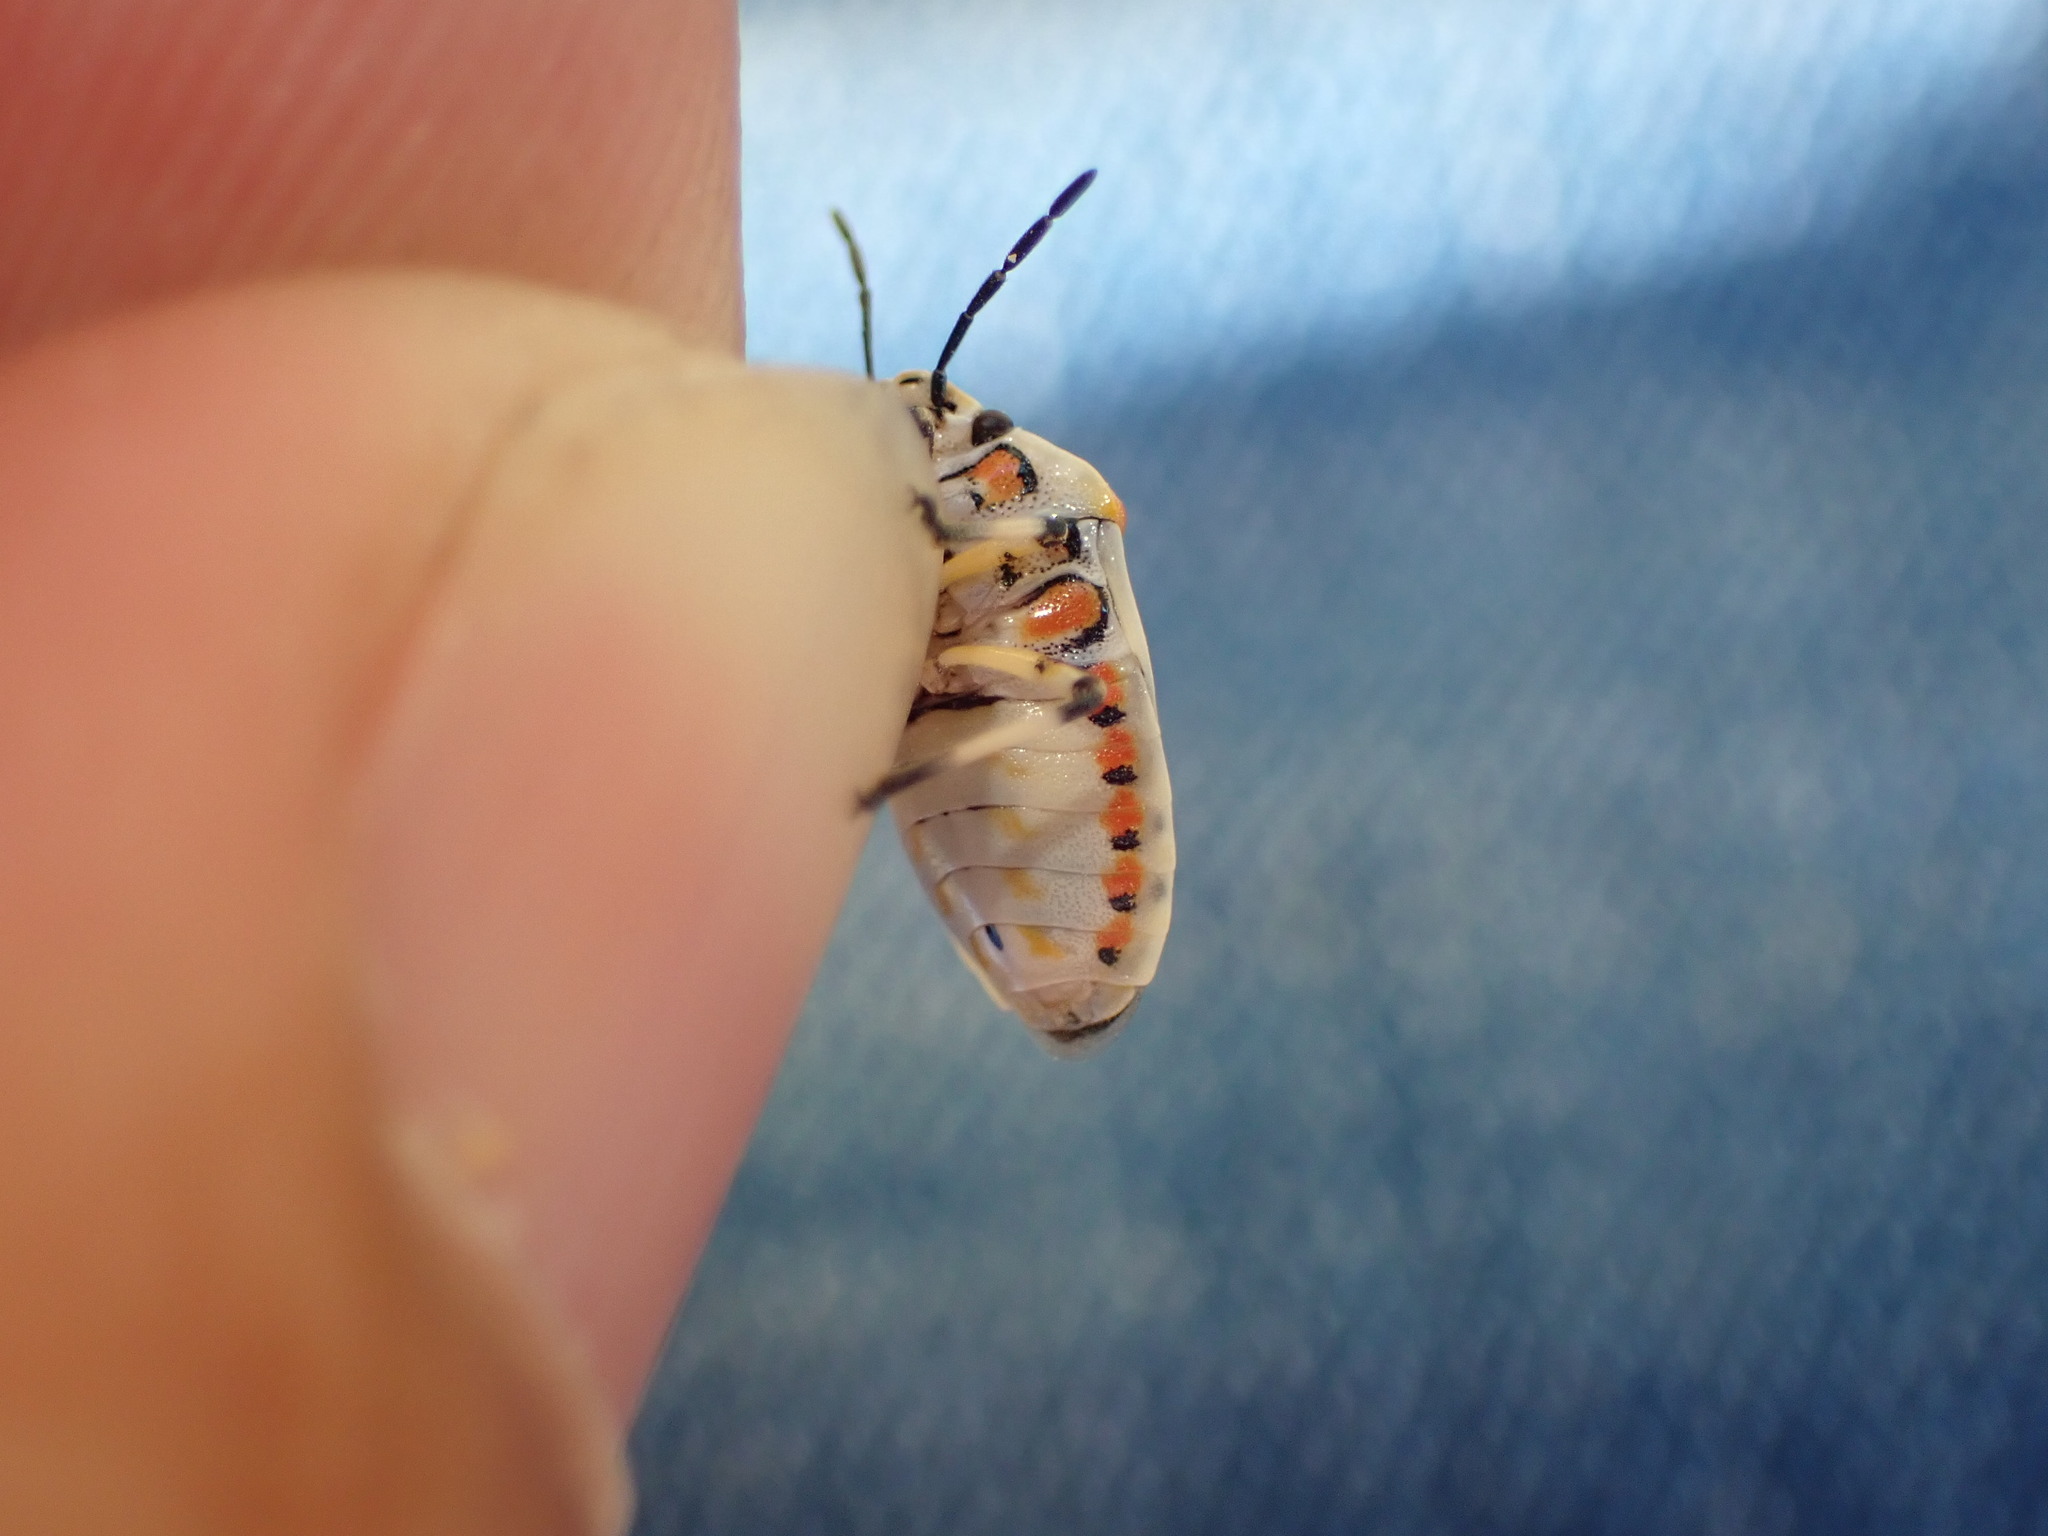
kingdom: Animalia
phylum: Arthropoda
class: Insecta
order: Hemiptera
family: Pentatomidae
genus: Eurydema
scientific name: Eurydema ornata
